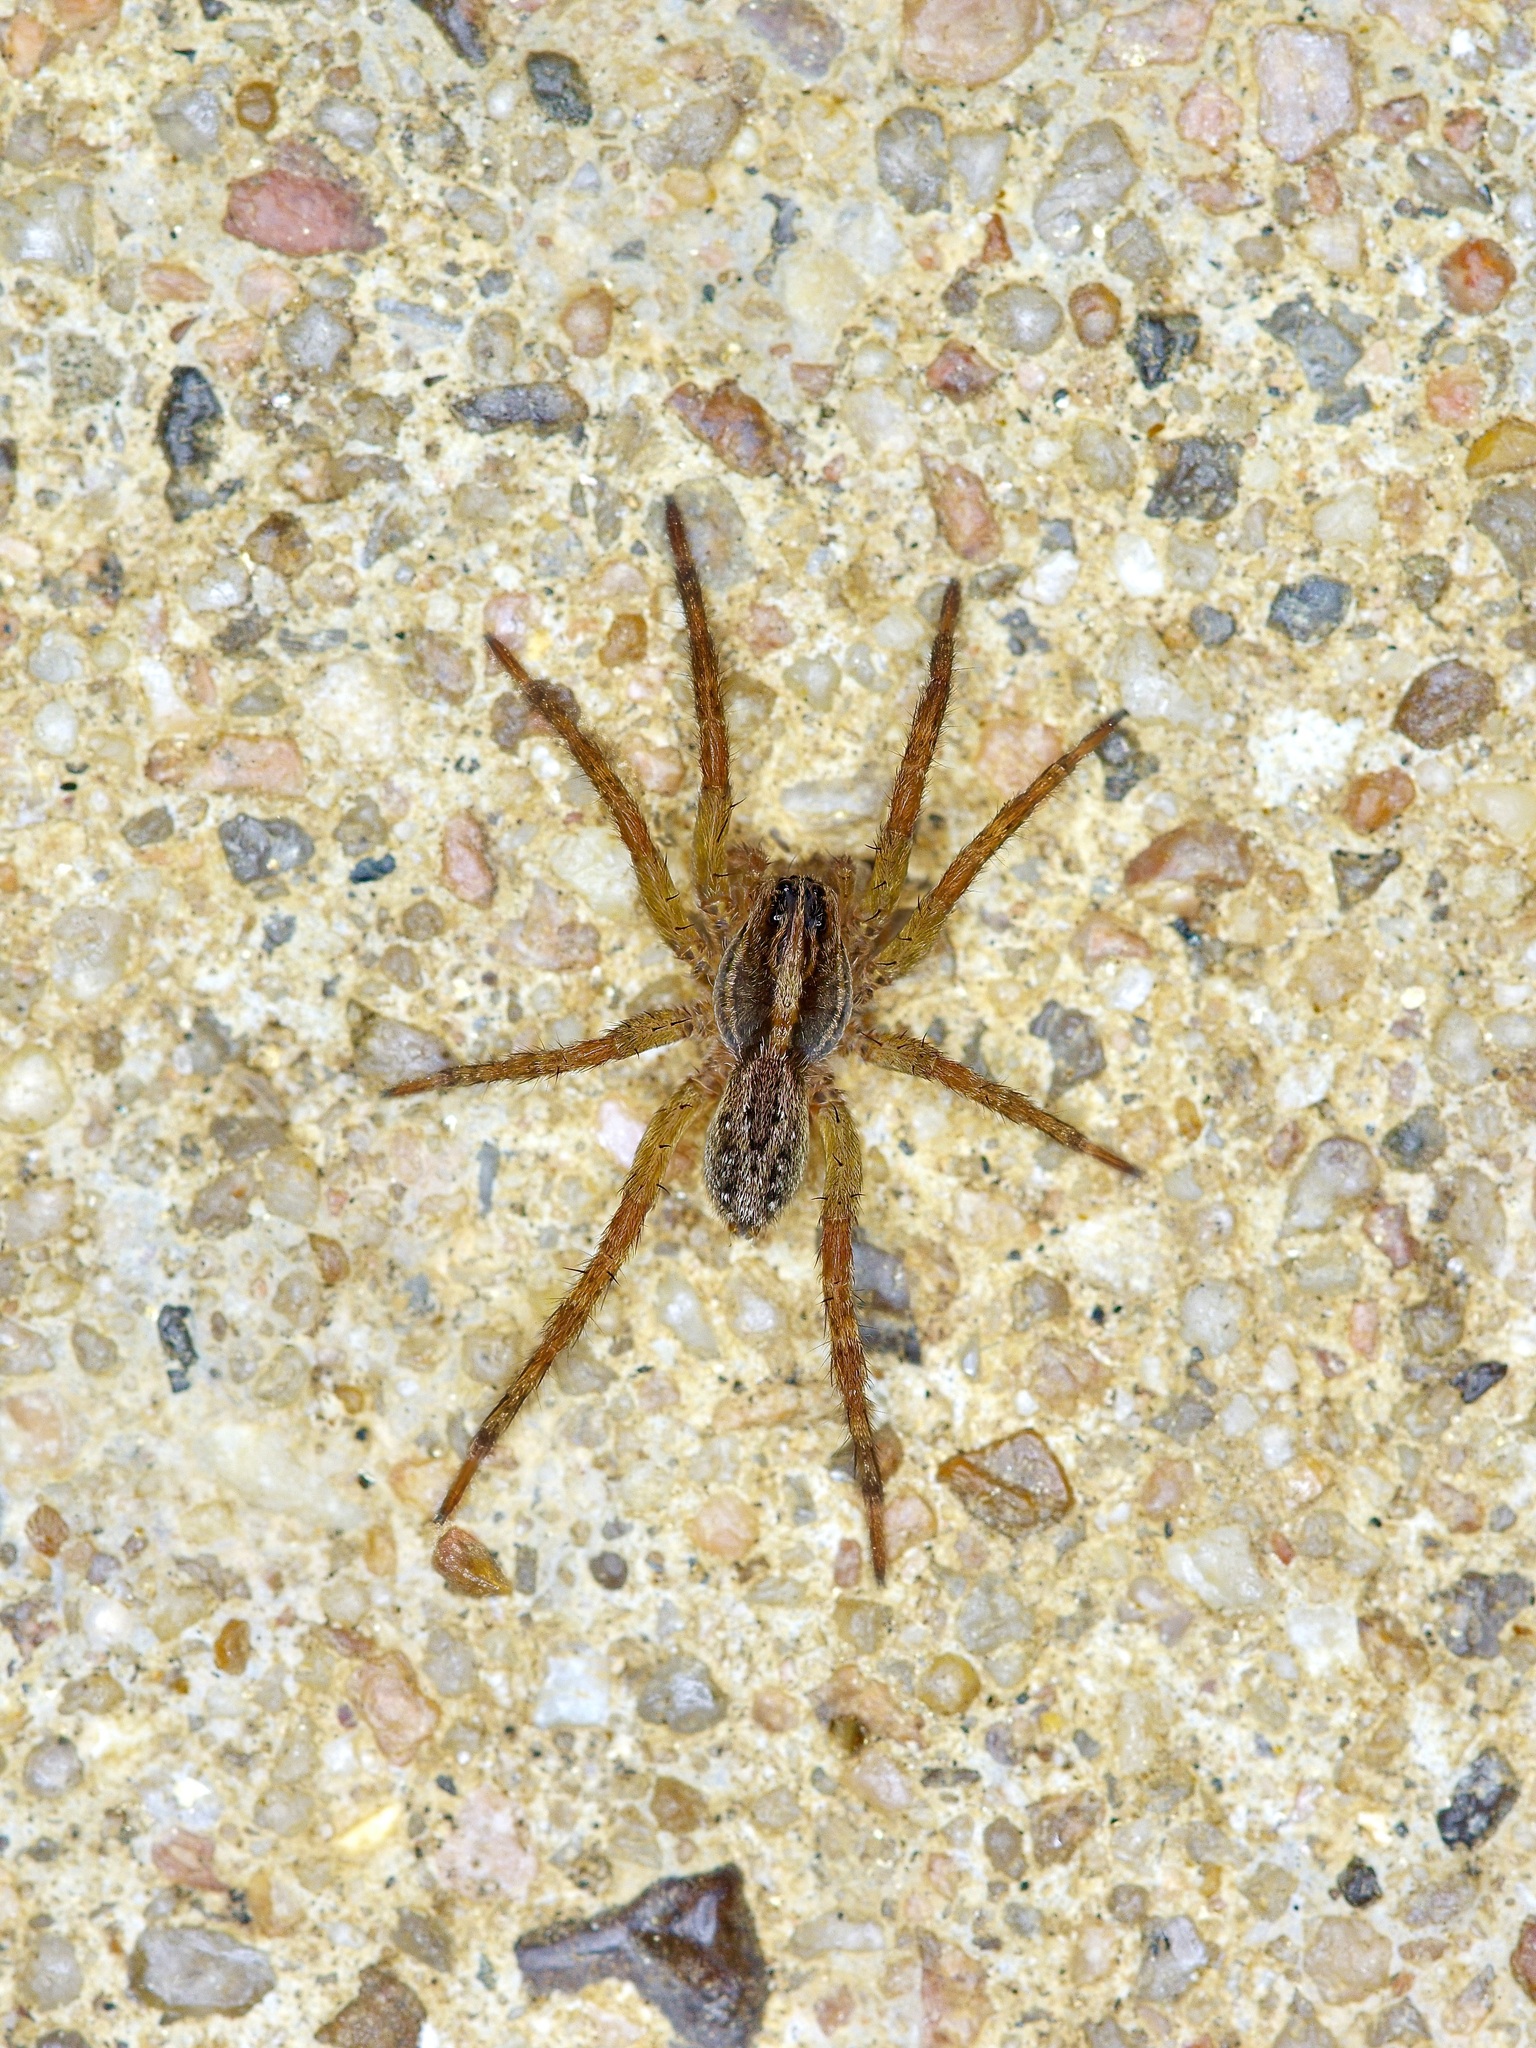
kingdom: Animalia
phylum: Arthropoda
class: Arachnida
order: Araneae
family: Lycosidae
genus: Tigrosa
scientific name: Tigrosa annexa
